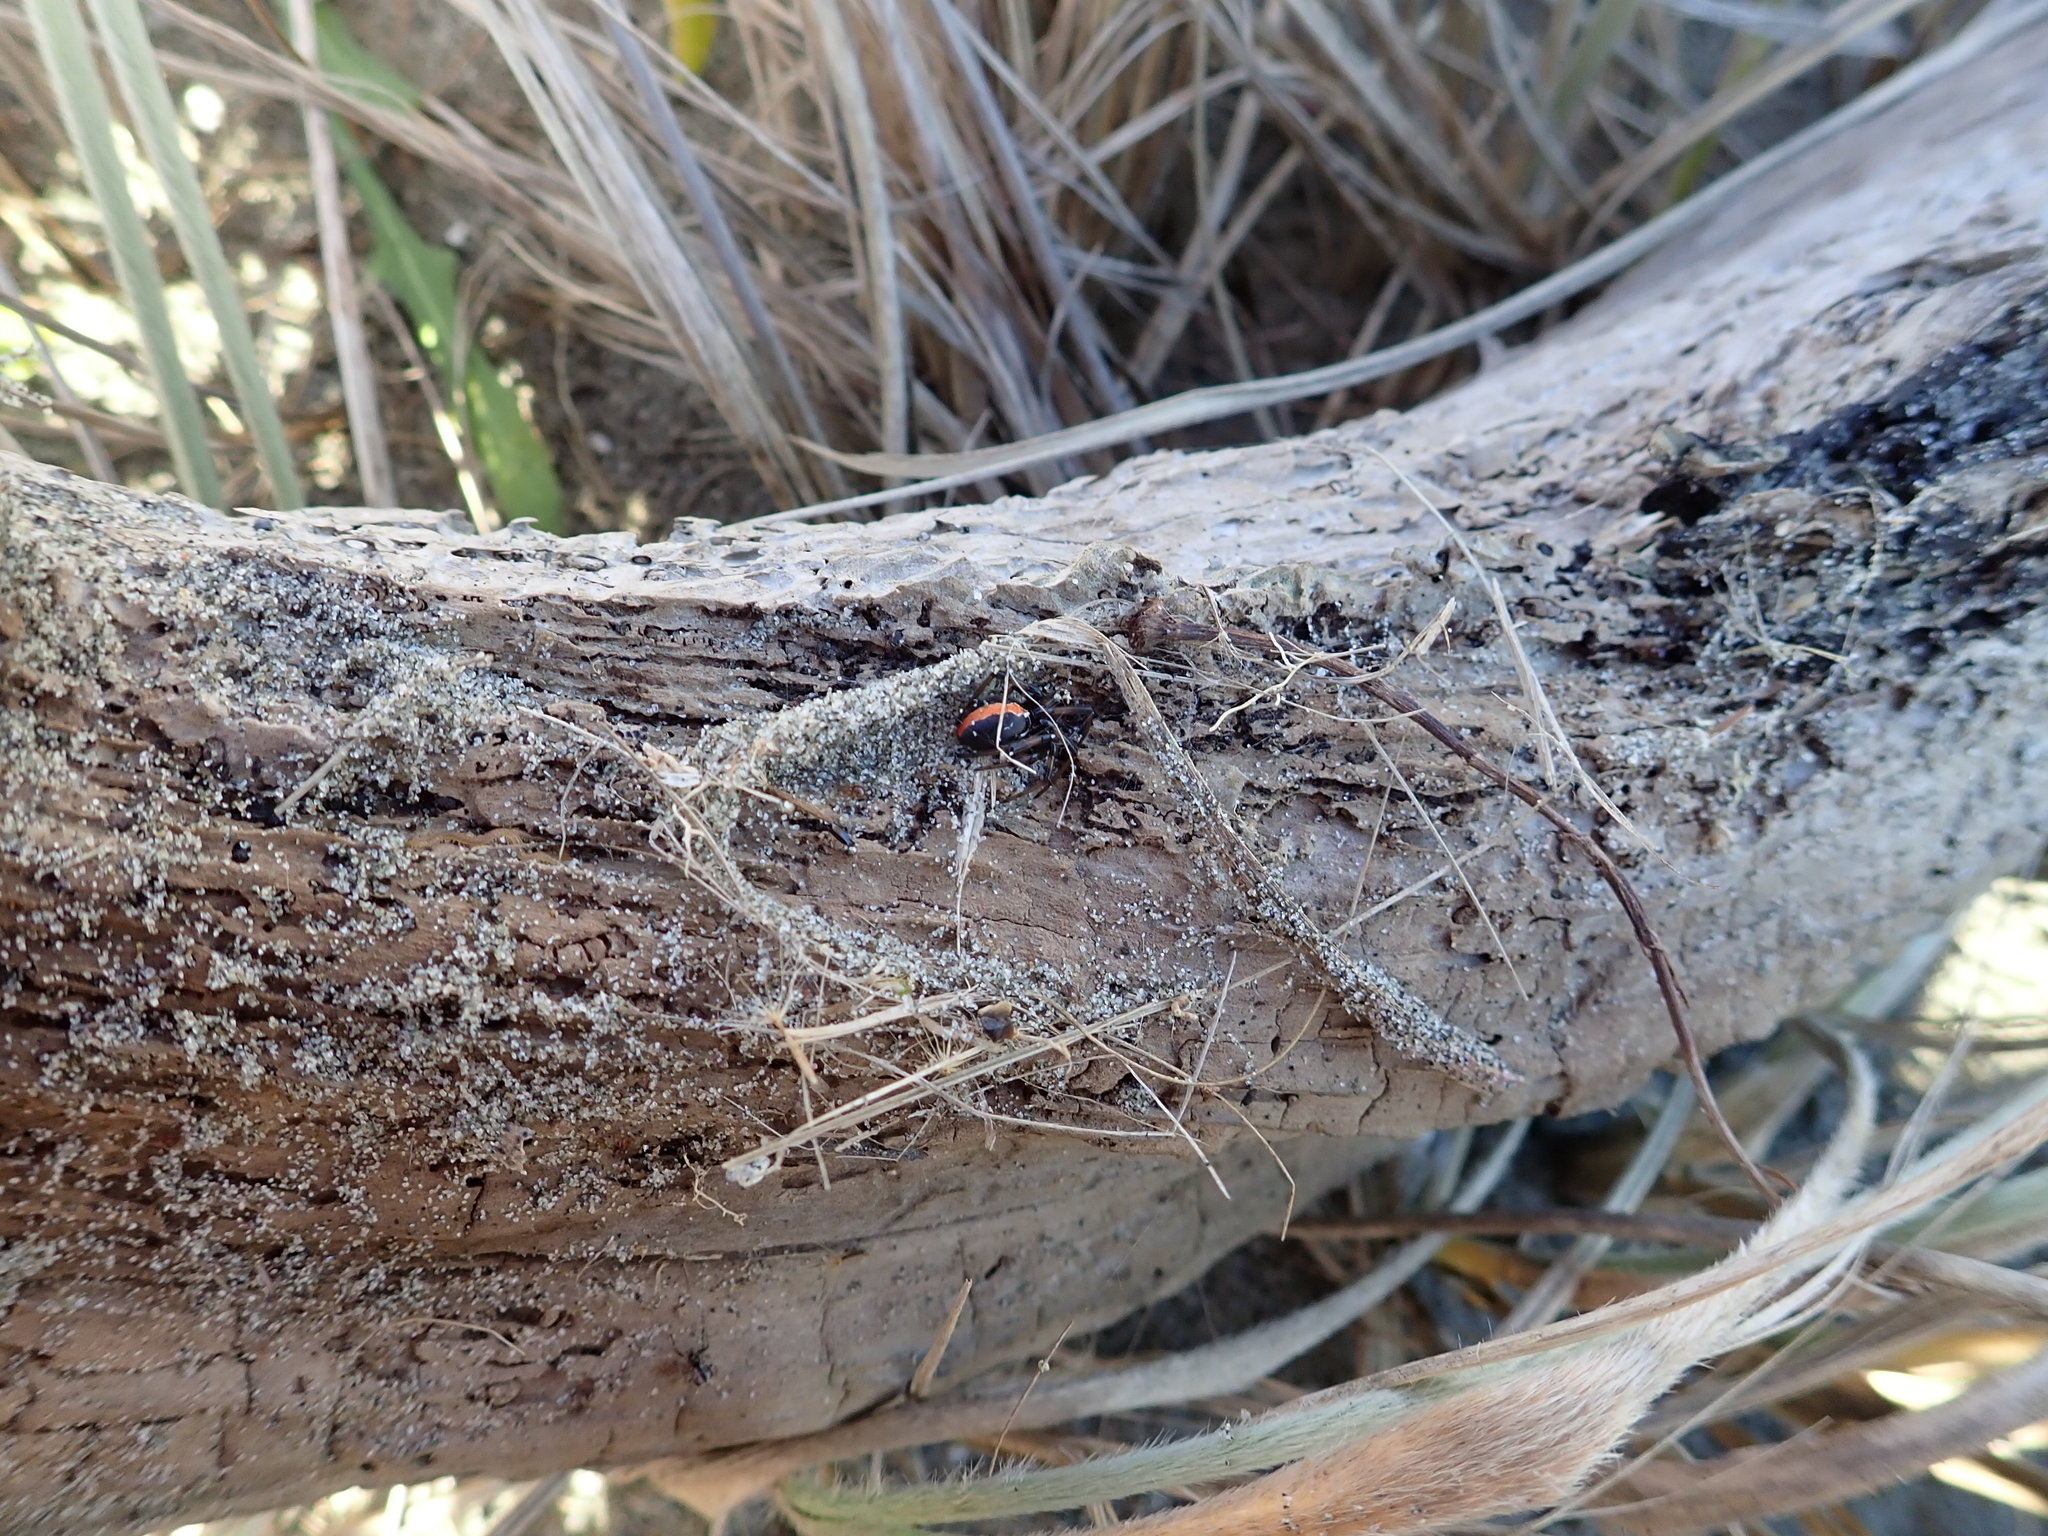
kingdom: Animalia
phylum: Arthropoda
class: Arachnida
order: Araneae
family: Theridiidae
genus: Latrodectus
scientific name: Latrodectus katipo
